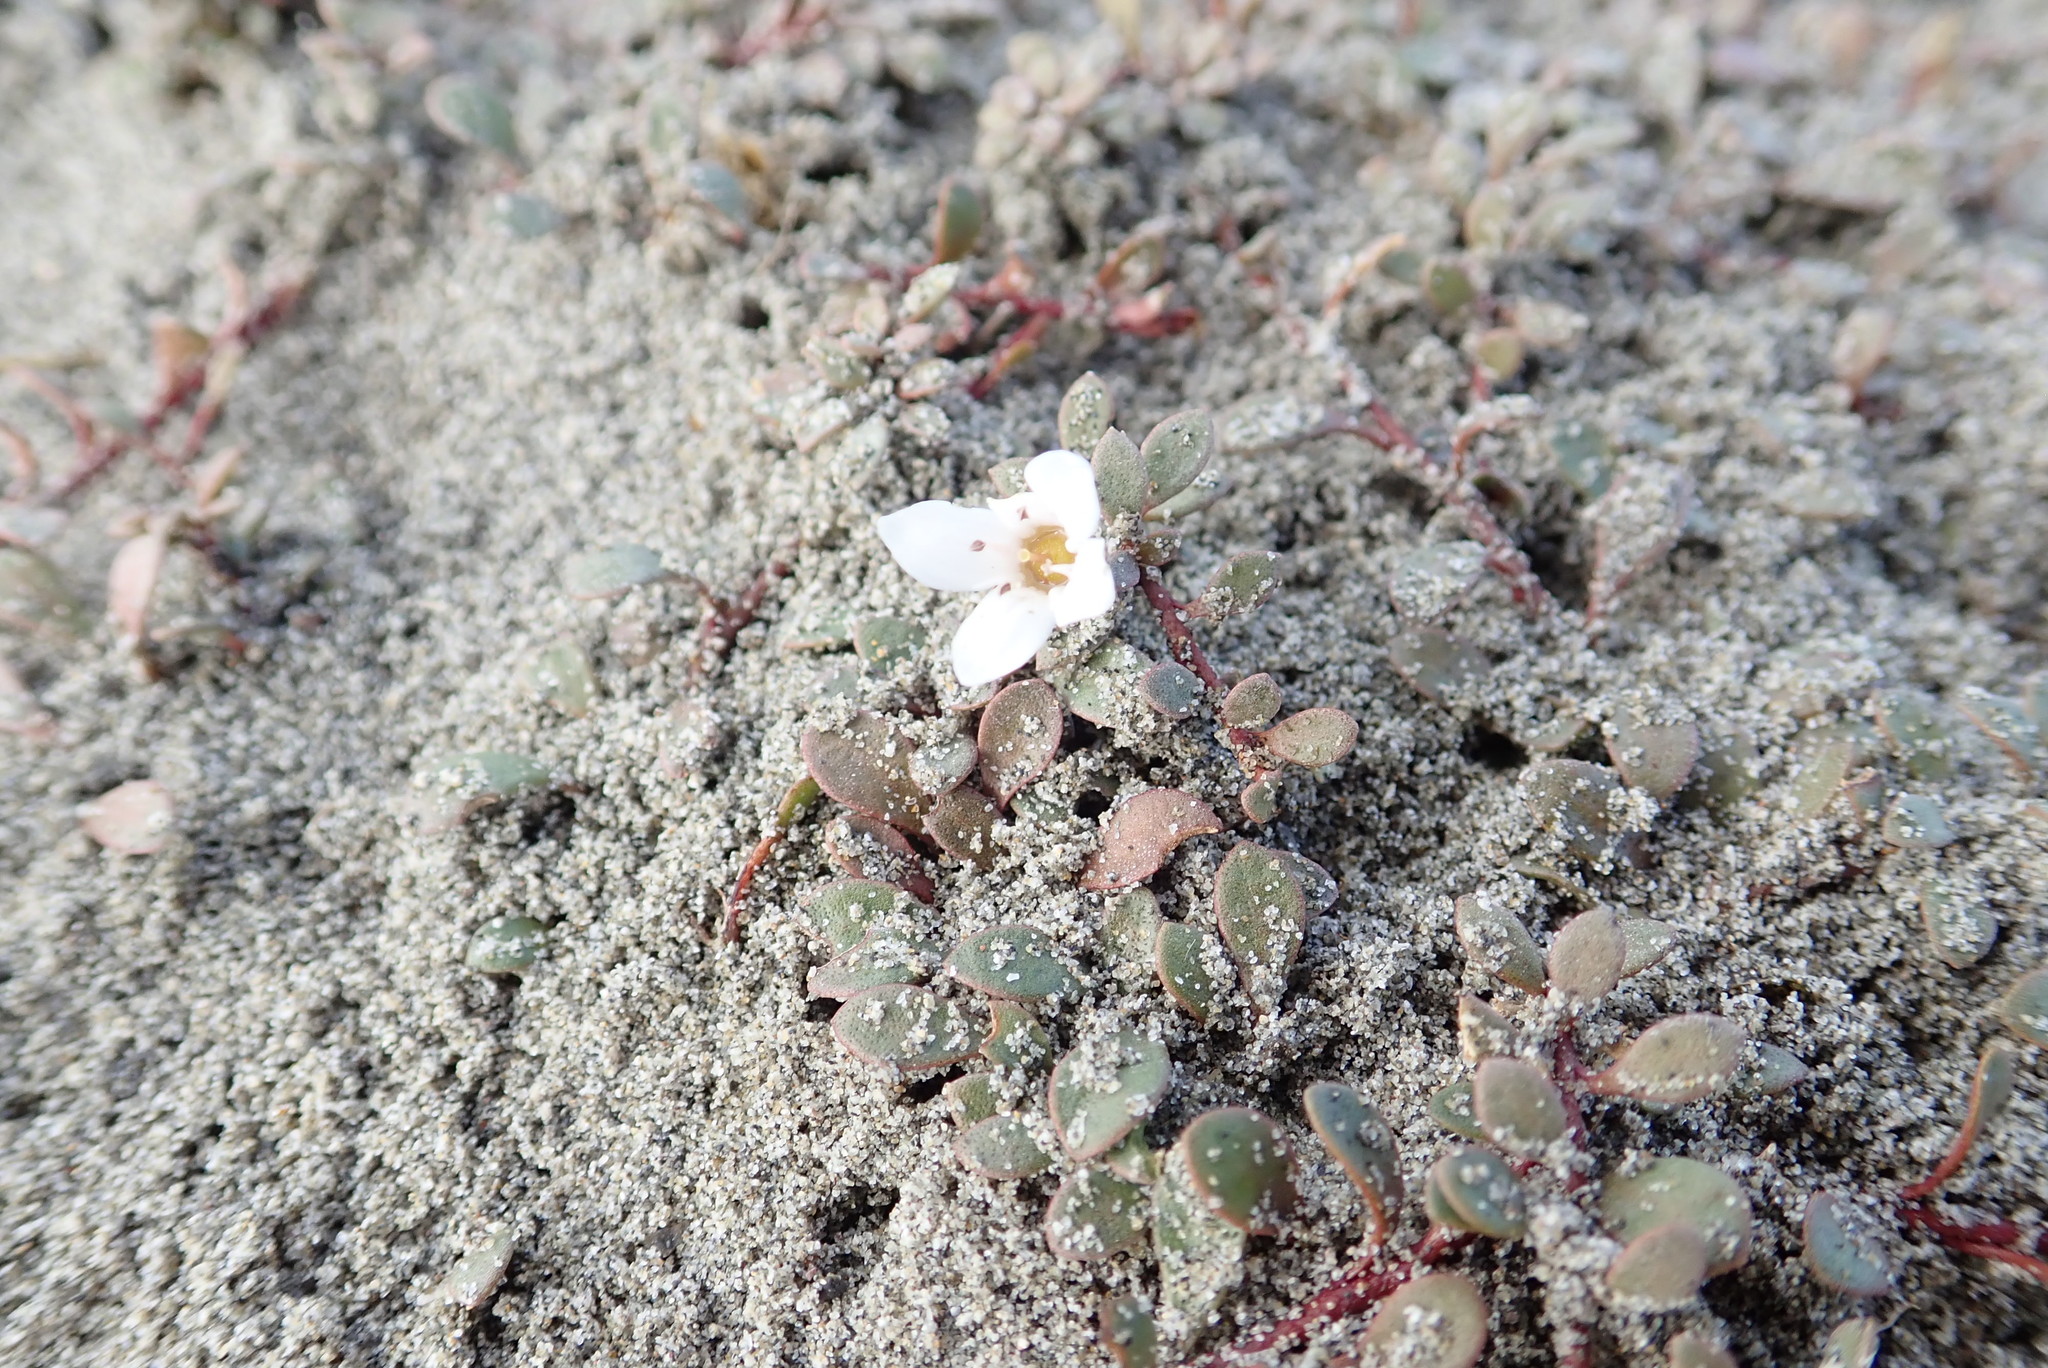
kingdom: Plantae
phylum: Tracheophyta
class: Magnoliopsida
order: Ericales
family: Primulaceae
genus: Samolus
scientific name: Samolus repens
